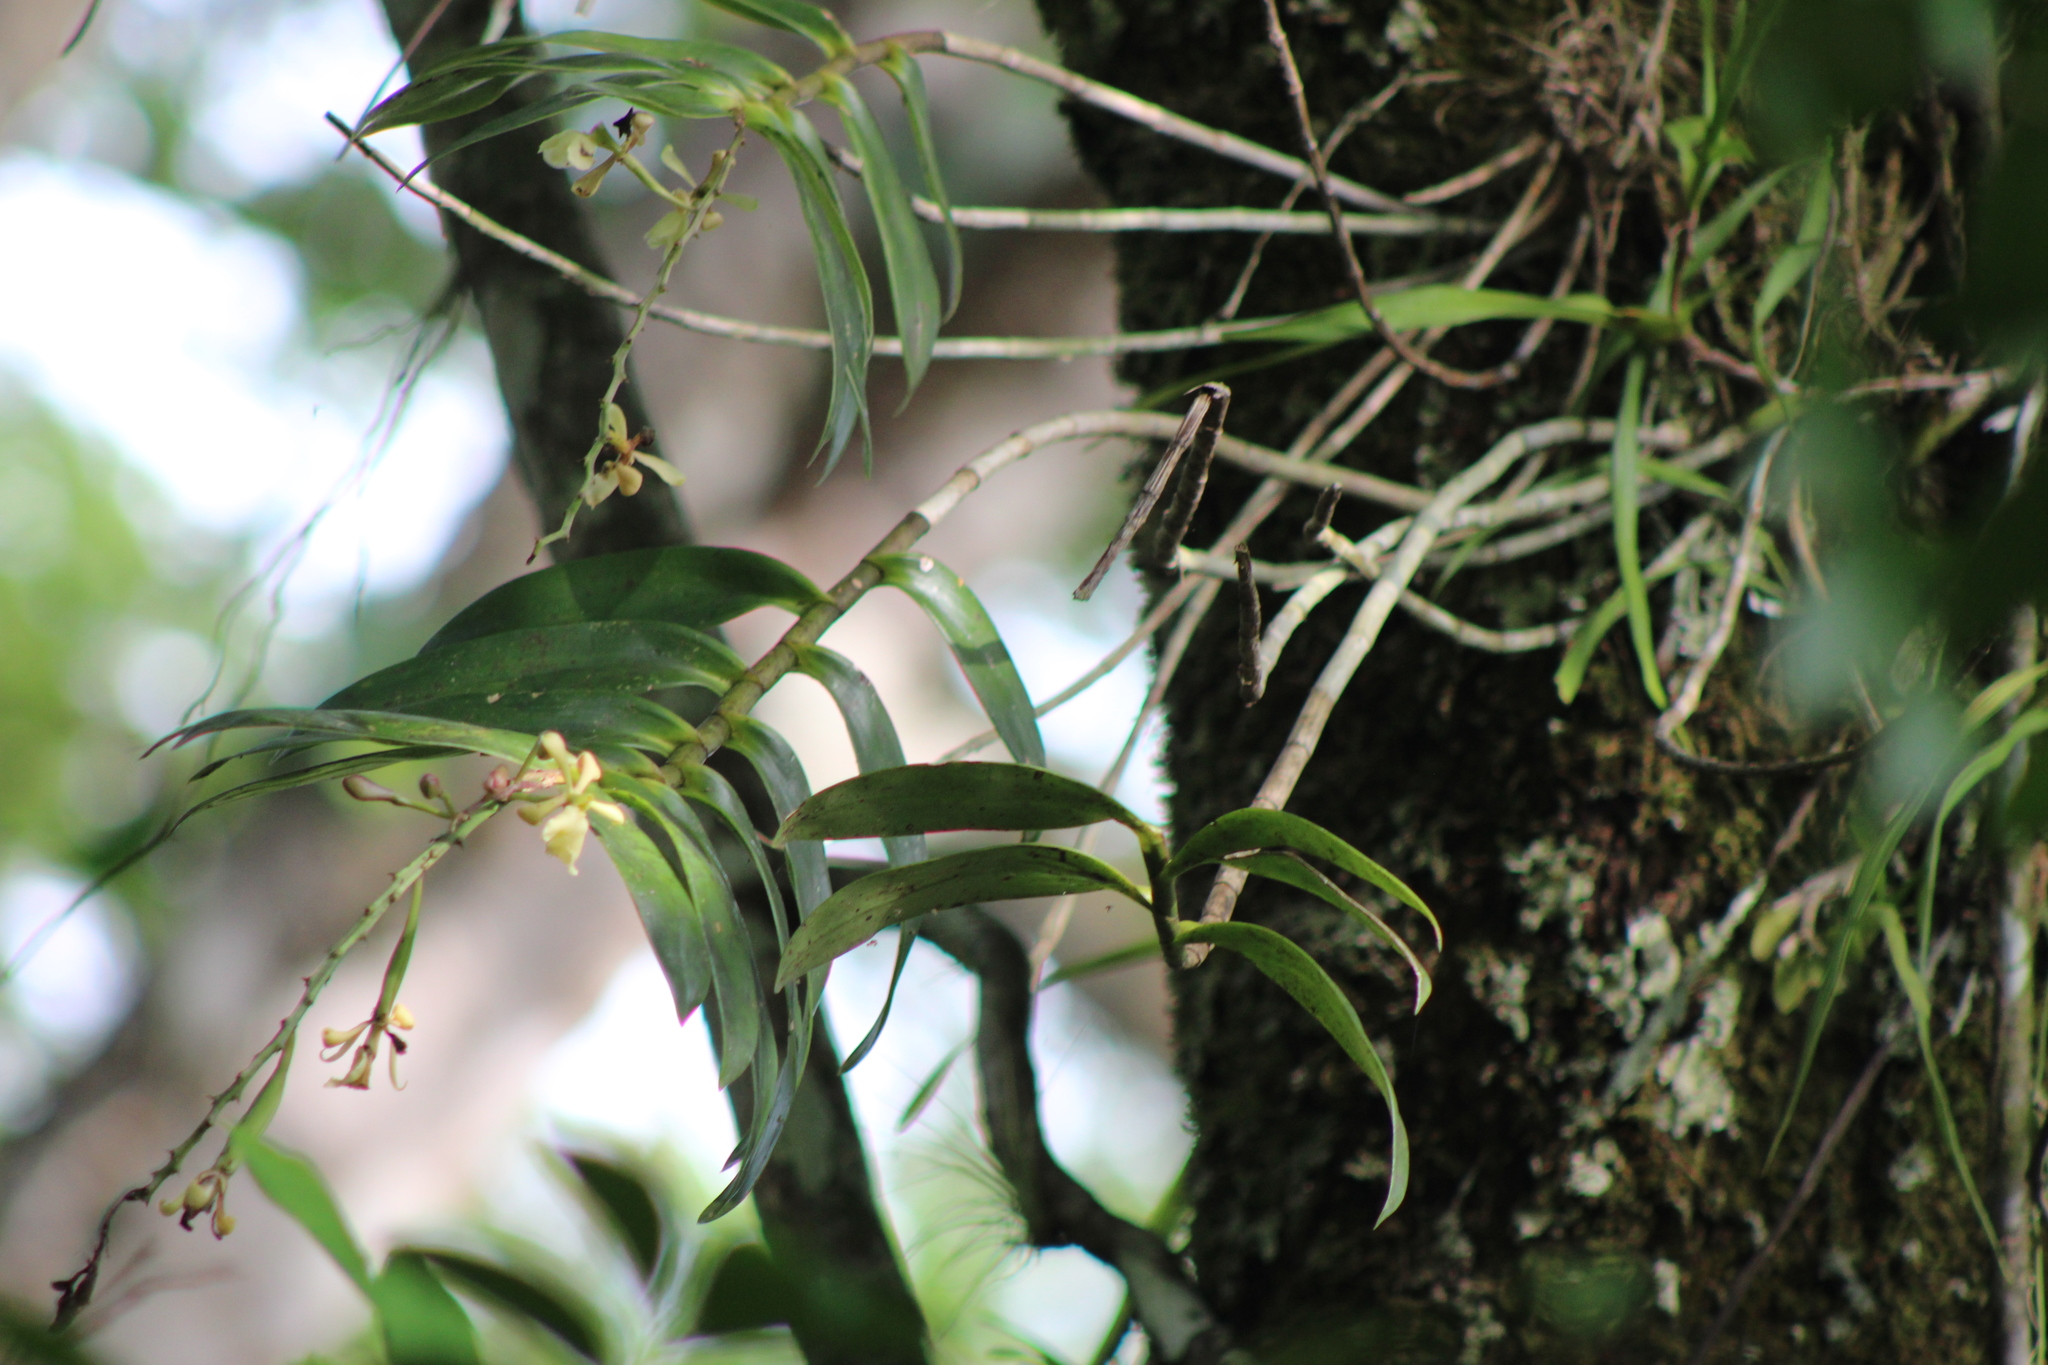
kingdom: Plantae
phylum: Tracheophyta
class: Liliopsida
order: Asparagales
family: Orchidaceae
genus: Epidendrum
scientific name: Epidendrum coronatum
